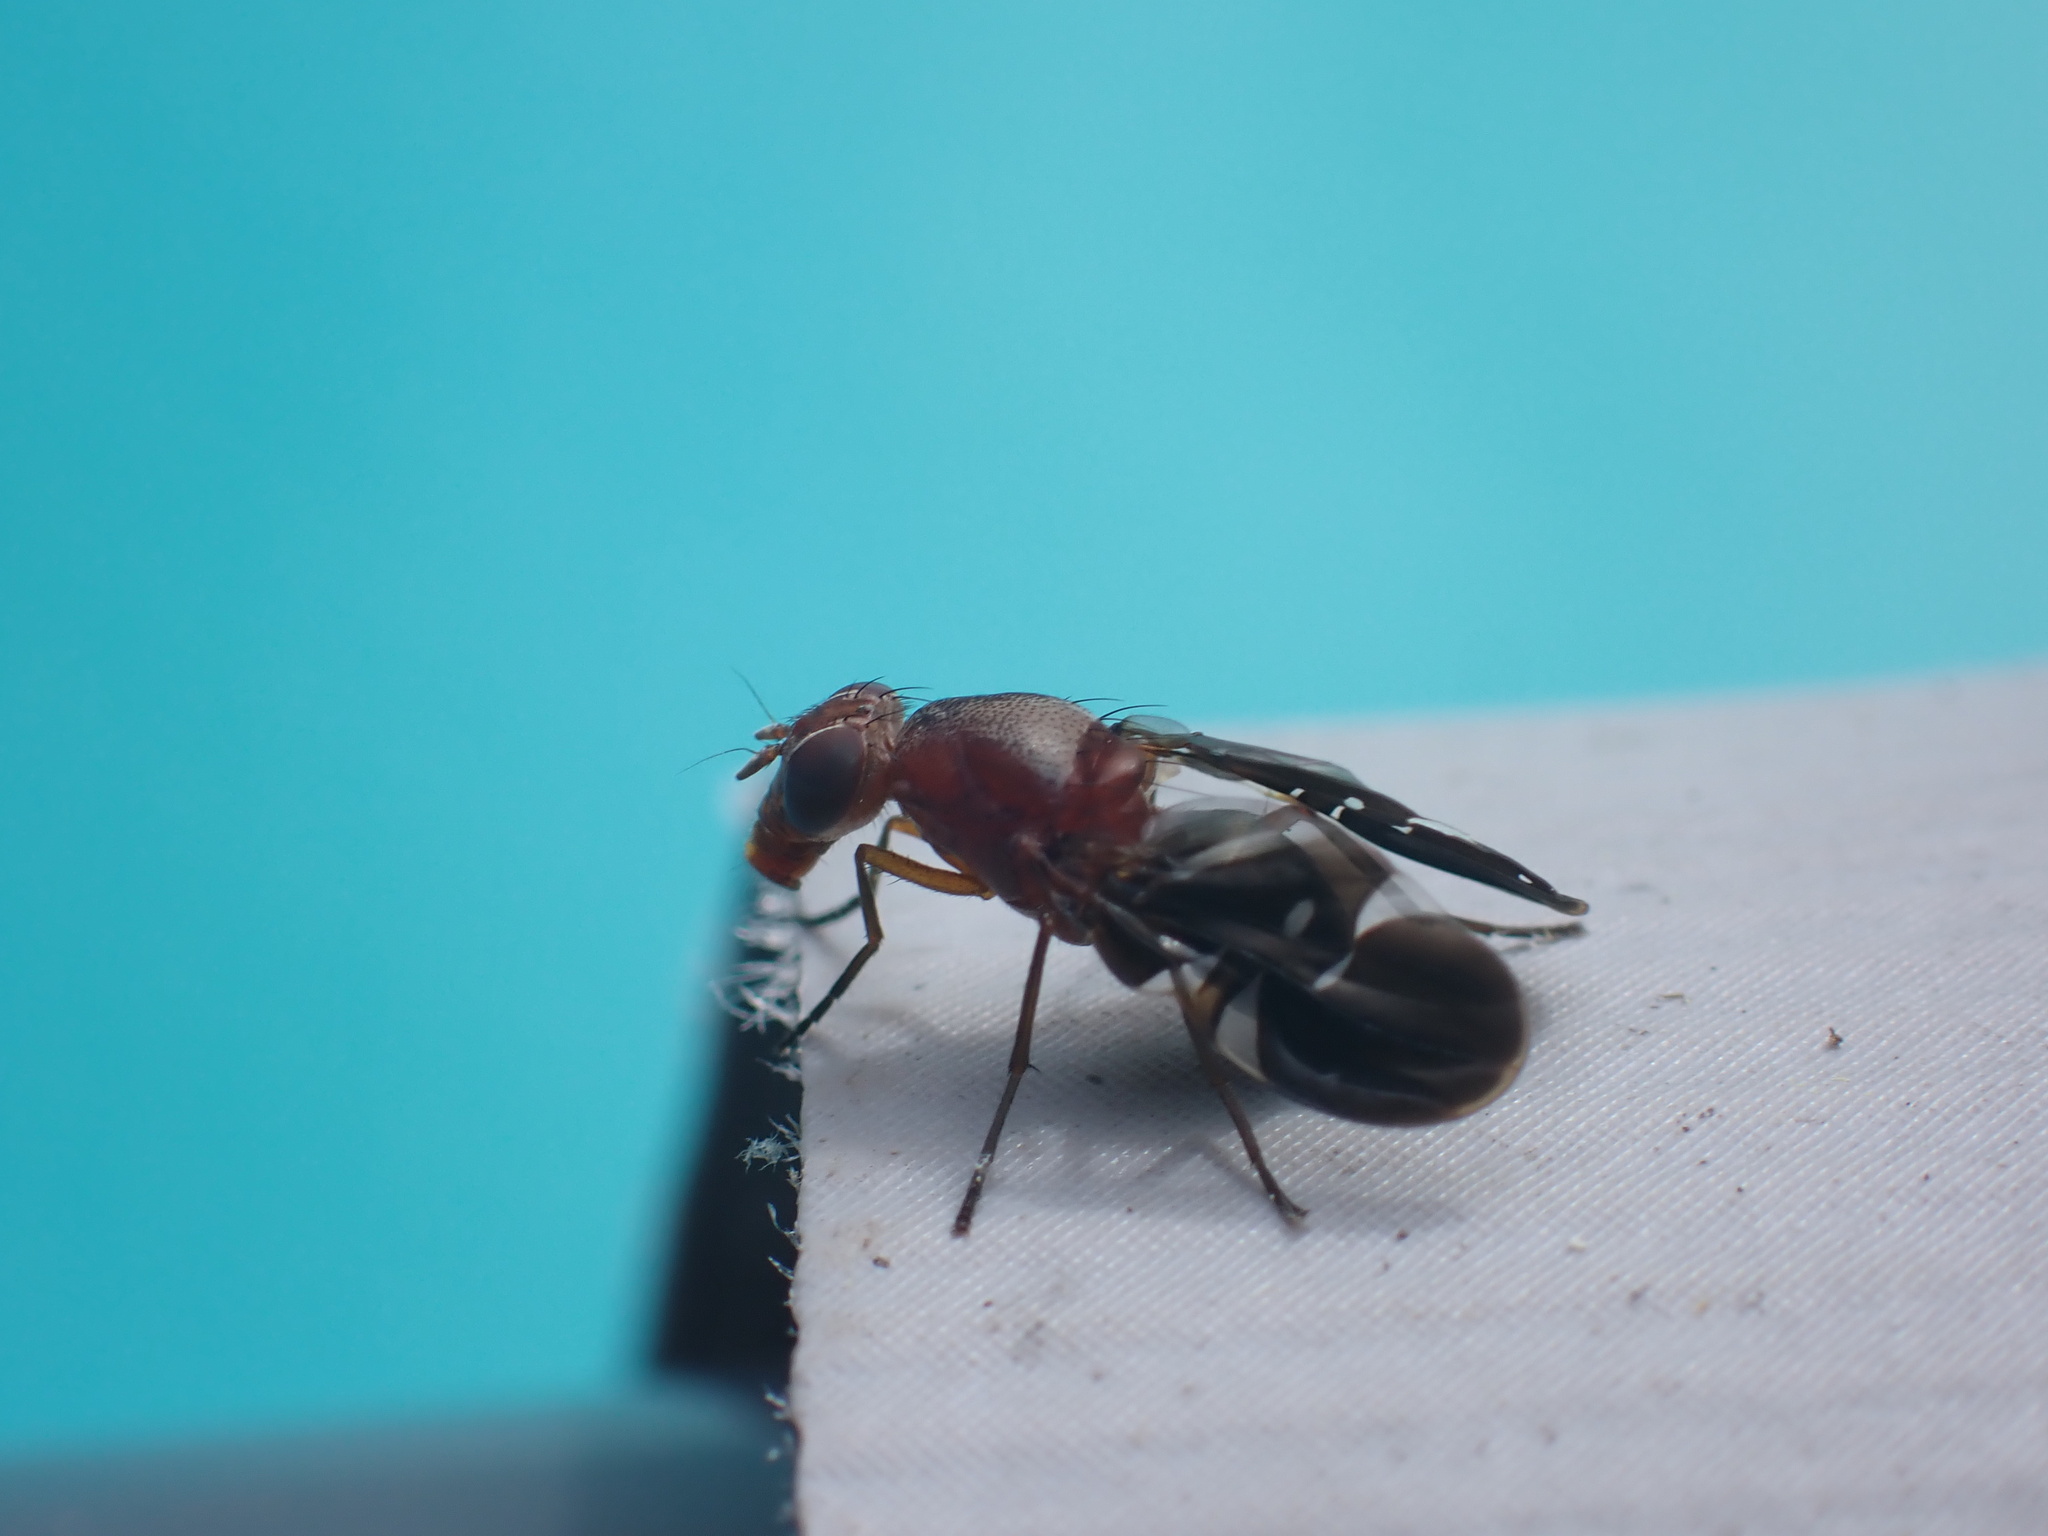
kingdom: Animalia
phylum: Arthropoda
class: Insecta
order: Diptera
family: Ulidiidae
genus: Delphinia
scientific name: Delphinia picta
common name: Common picture-winged fly
